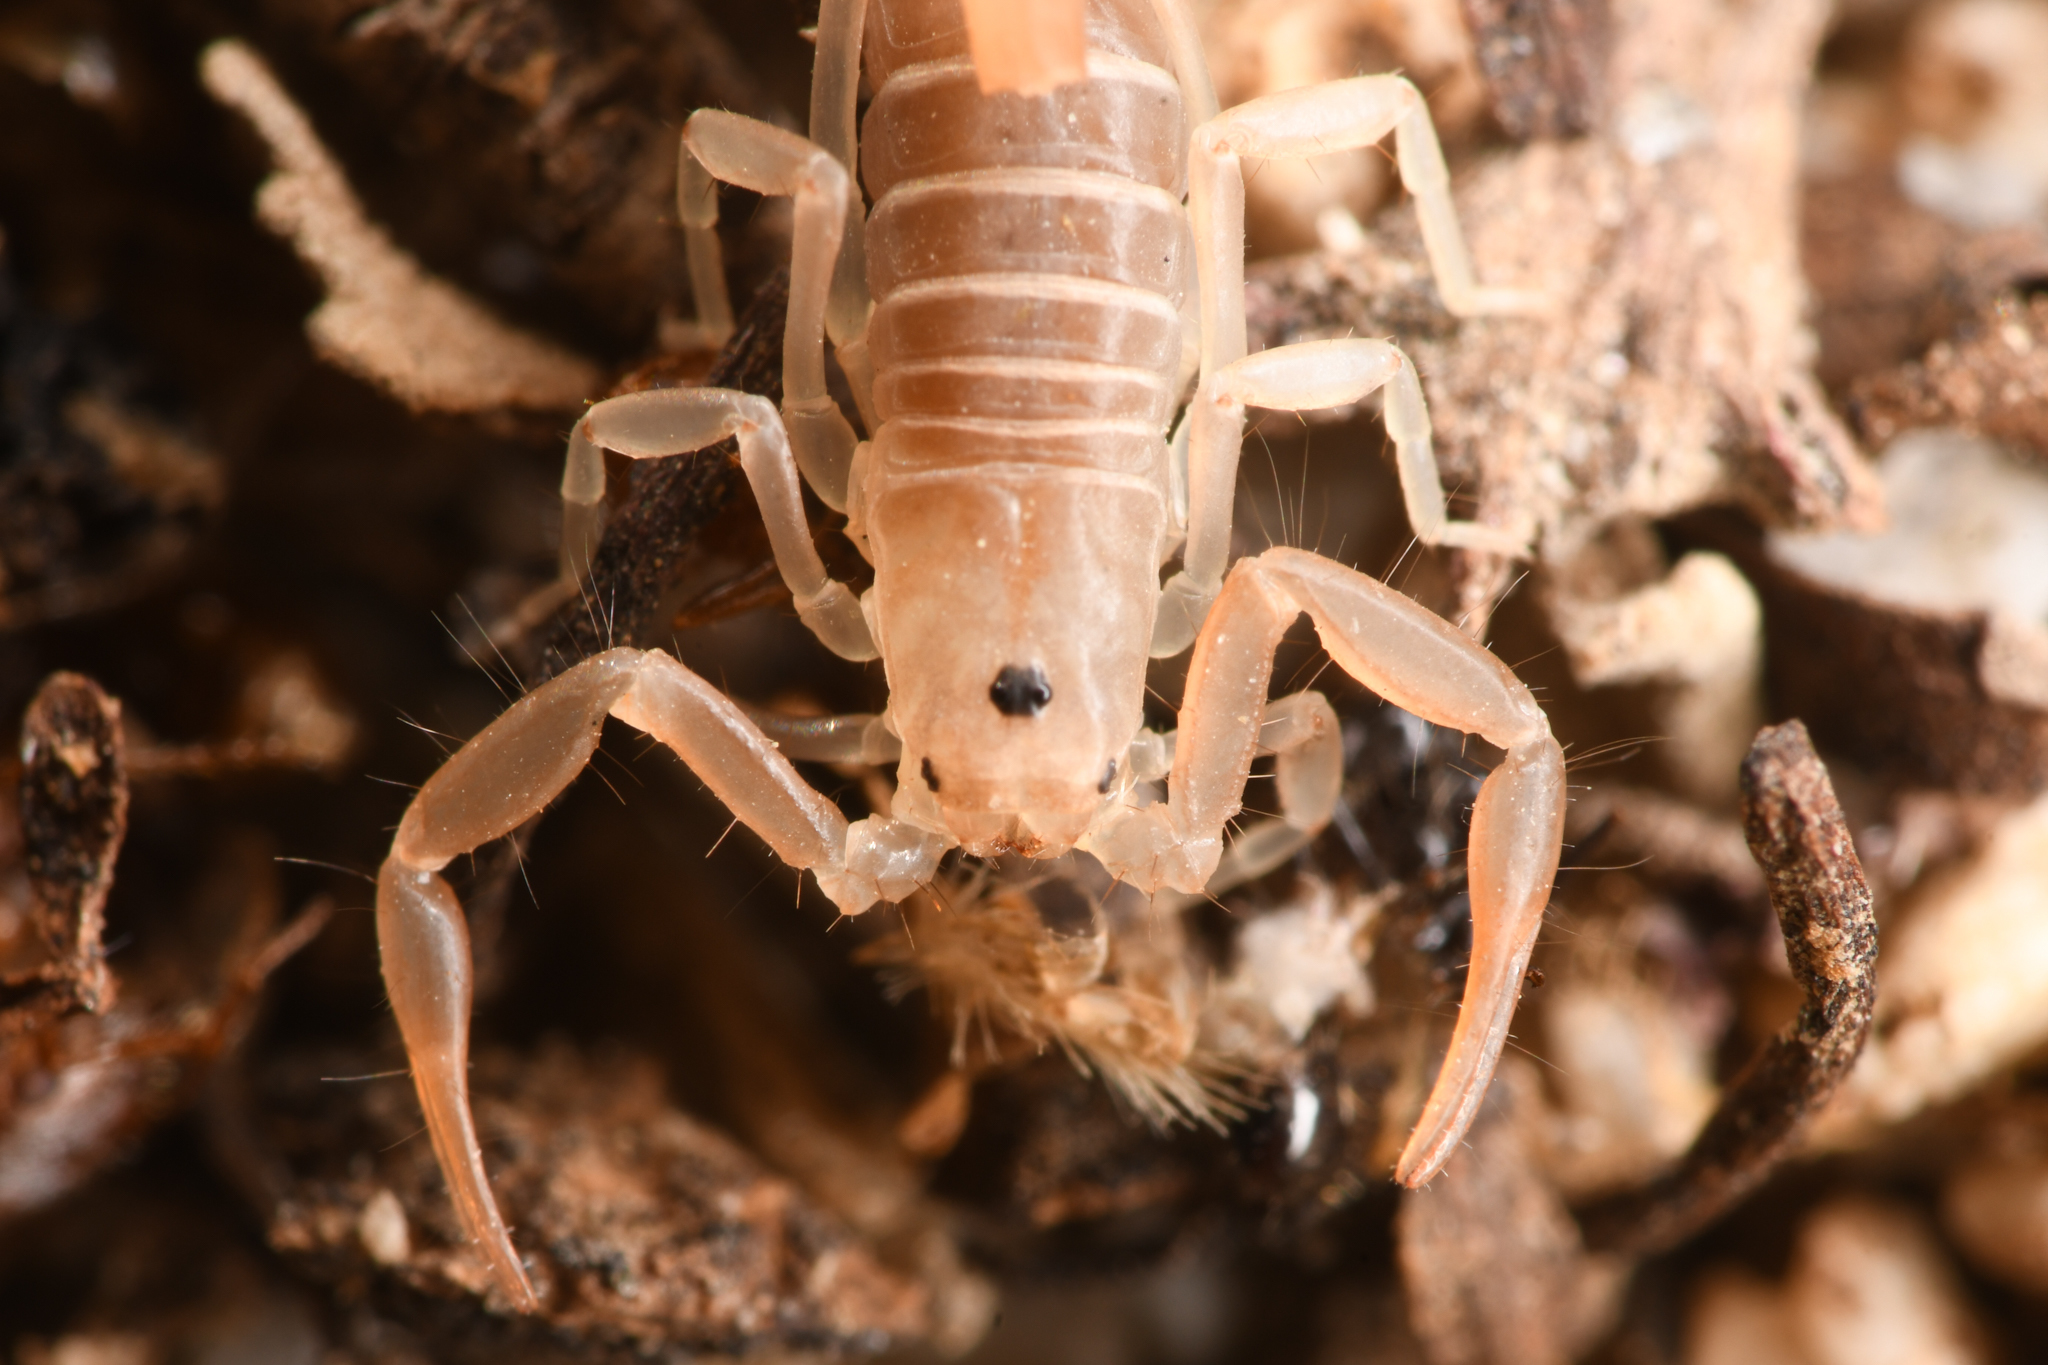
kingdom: Animalia
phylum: Arthropoda
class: Arachnida
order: Scorpiones
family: Vaejovidae
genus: Paravaejovis
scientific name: Paravaejovis waeringi
